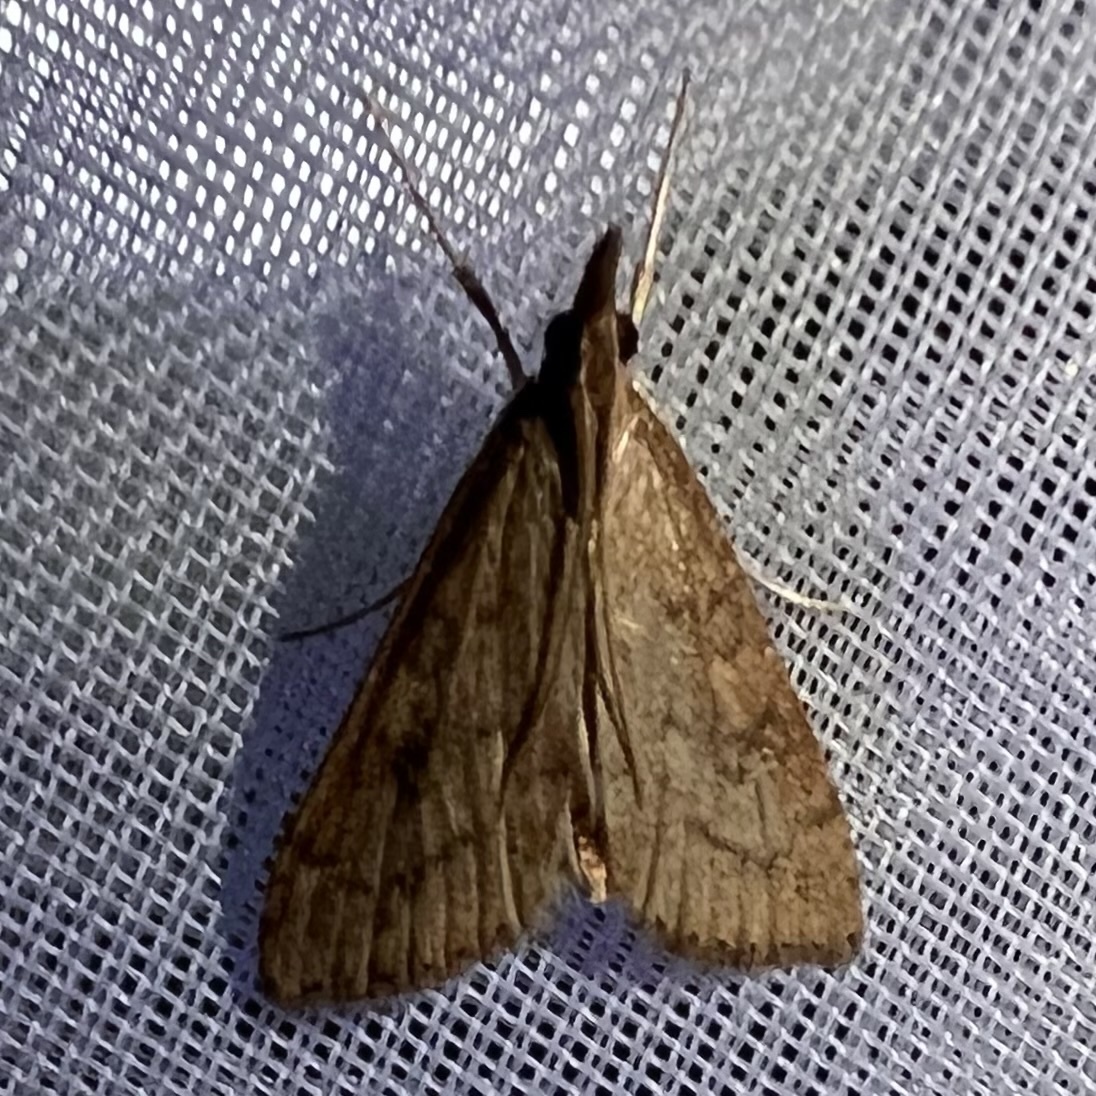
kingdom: Animalia
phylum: Arthropoda
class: Insecta
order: Lepidoptera
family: Crambidae
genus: Udea
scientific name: Udea rubigalis
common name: Celery leaftier moth
